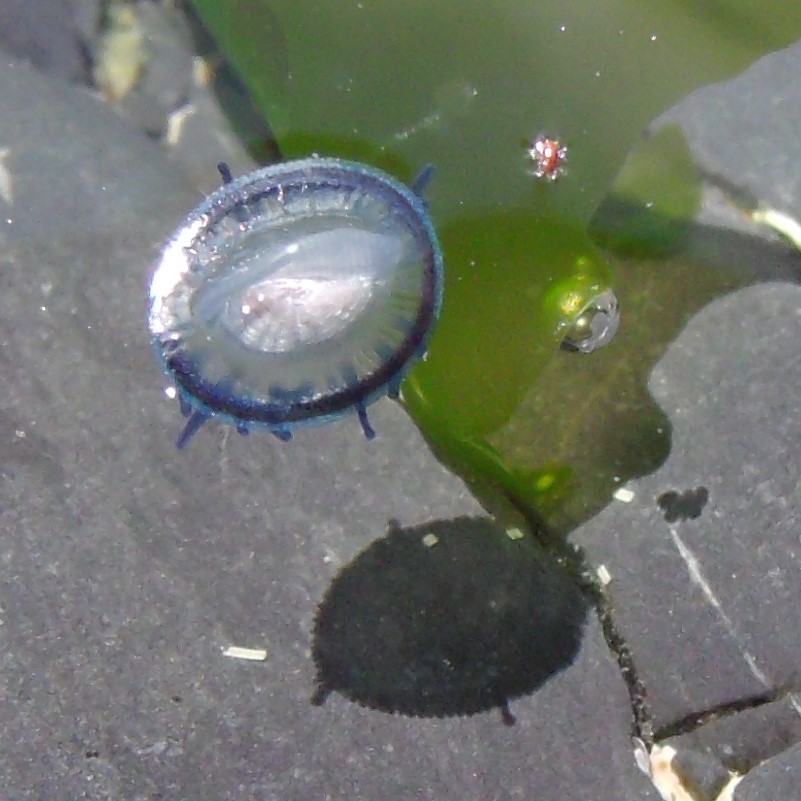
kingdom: Animalia
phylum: Cnidaria
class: Hydrozoa
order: Anthoathecata
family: Porpitidae
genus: Velella
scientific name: Velella velella
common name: By-the-wind-sailor
